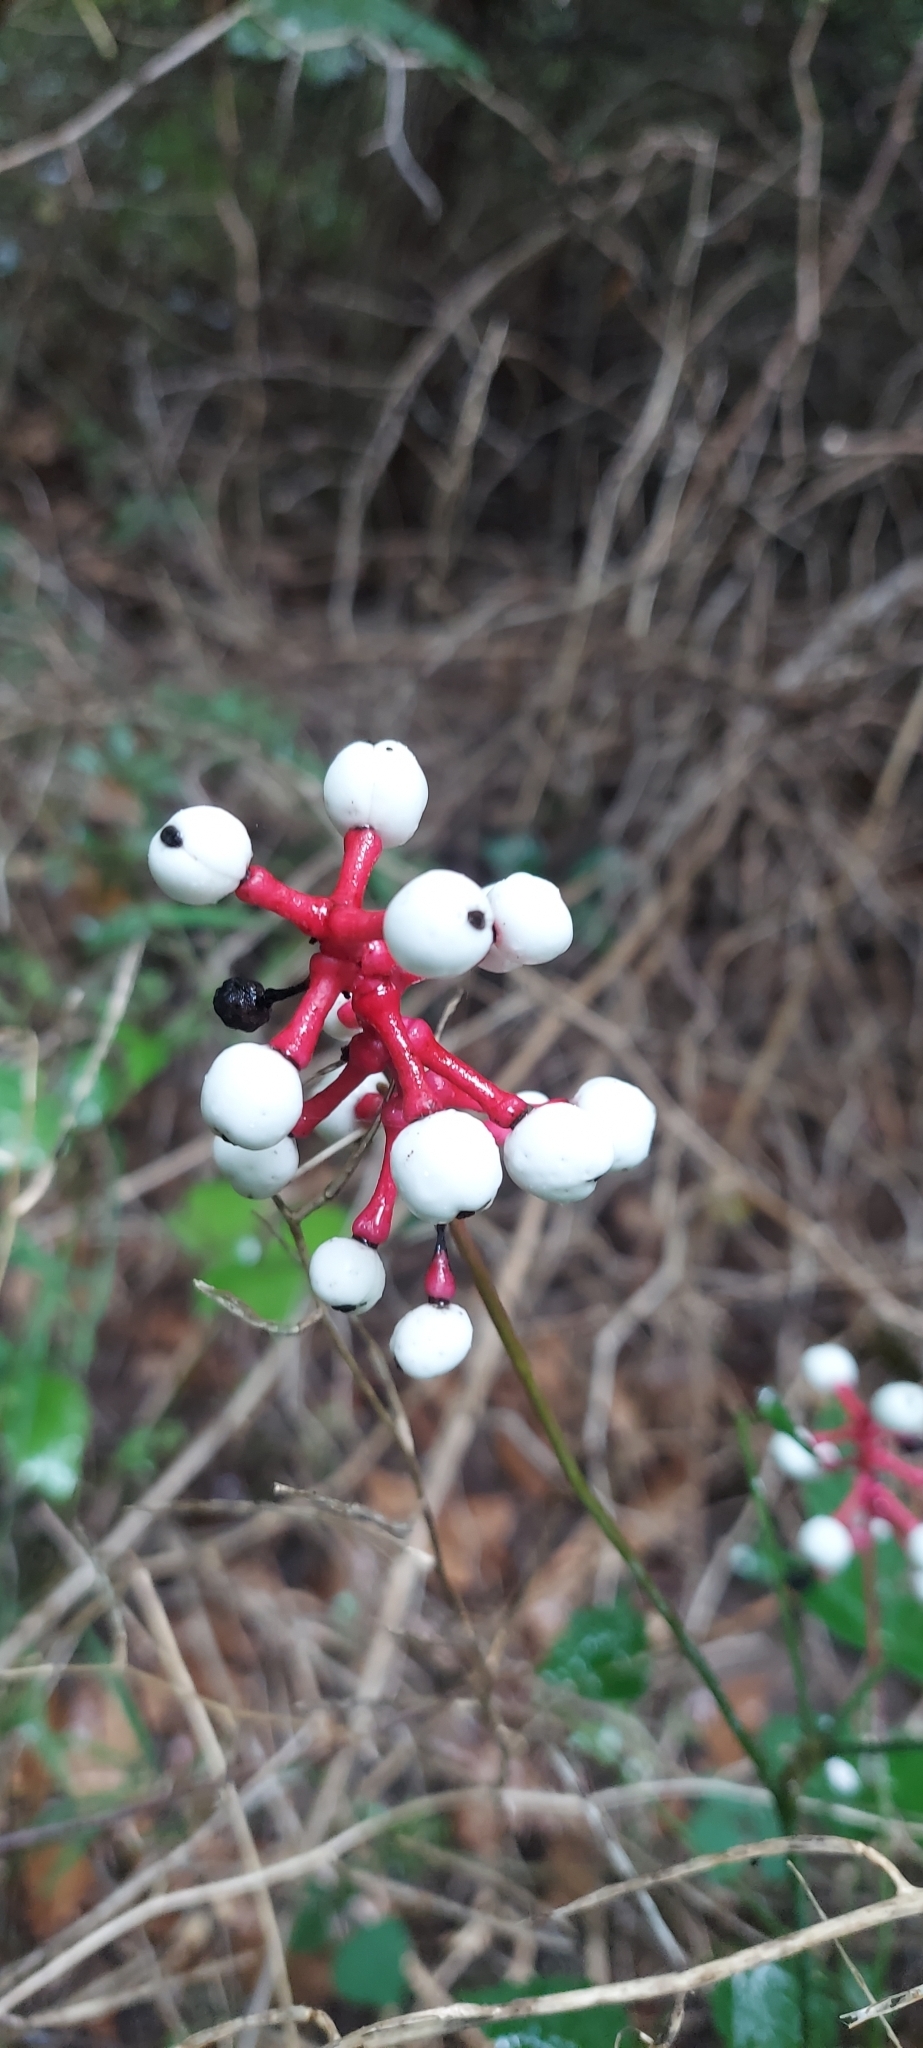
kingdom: Plantae
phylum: Tracheophyta
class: Magnoliopsida
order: Ranunculales
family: Ranunculaceae
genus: Actaea
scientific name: Actaea pachypoda
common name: Doll's-eyes
